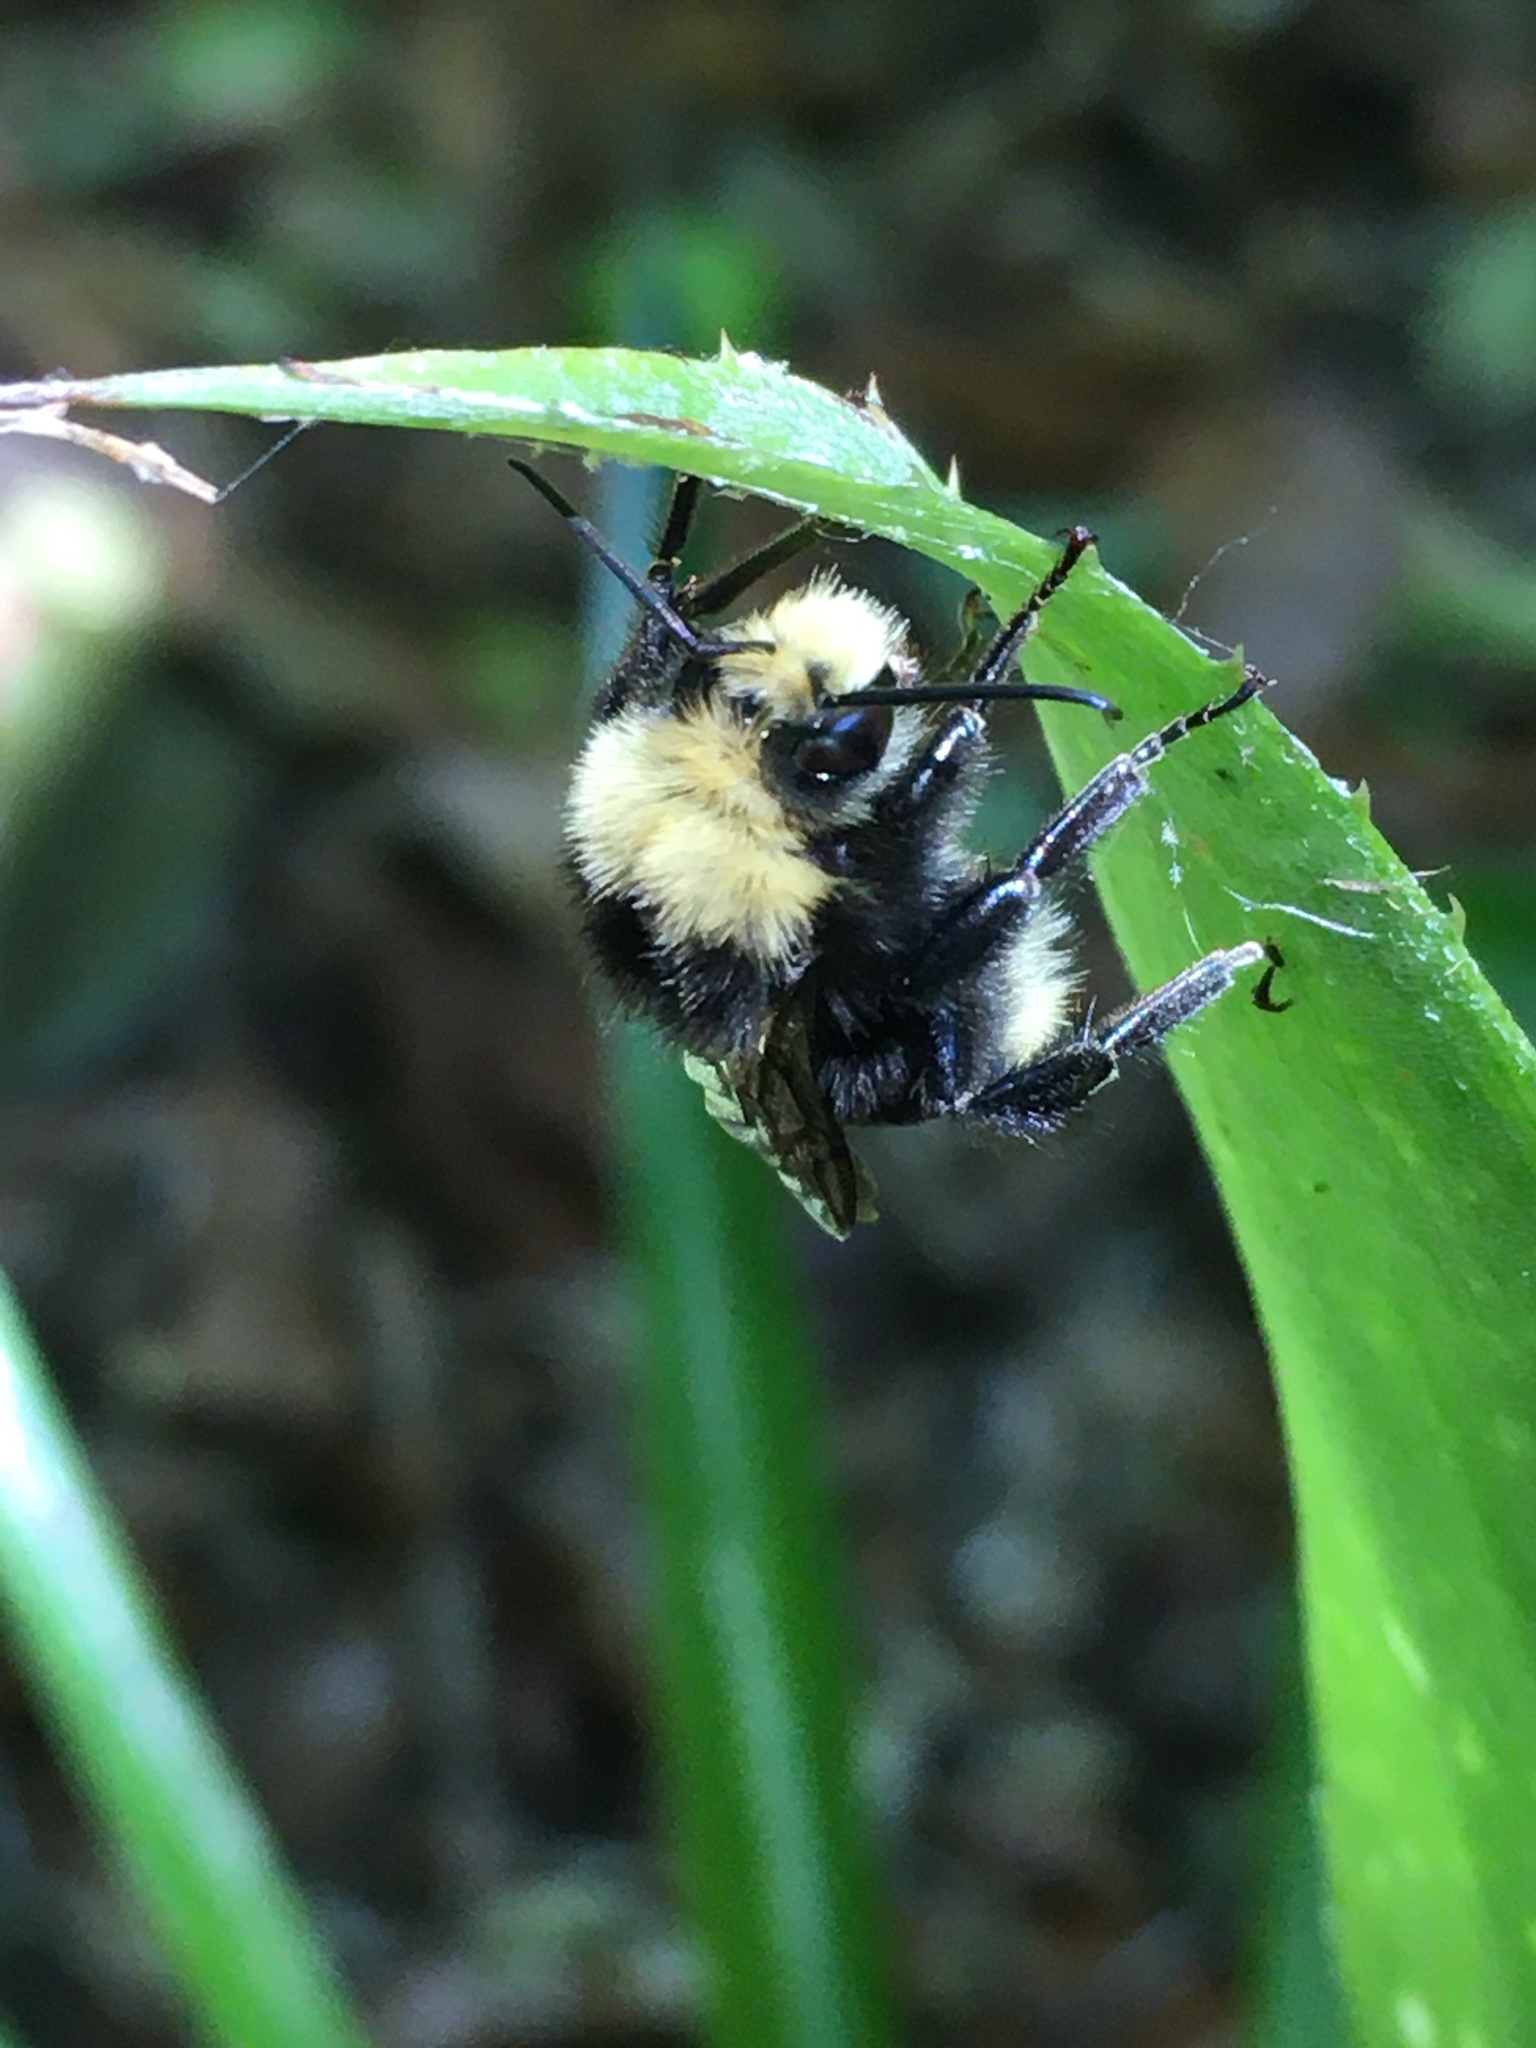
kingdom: Animalia
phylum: Arthropoda
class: Insecta
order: Hymenoptera
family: Apidae
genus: Bombus
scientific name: Bombus vosnesenskii
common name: Vosnesensky bumble bee
